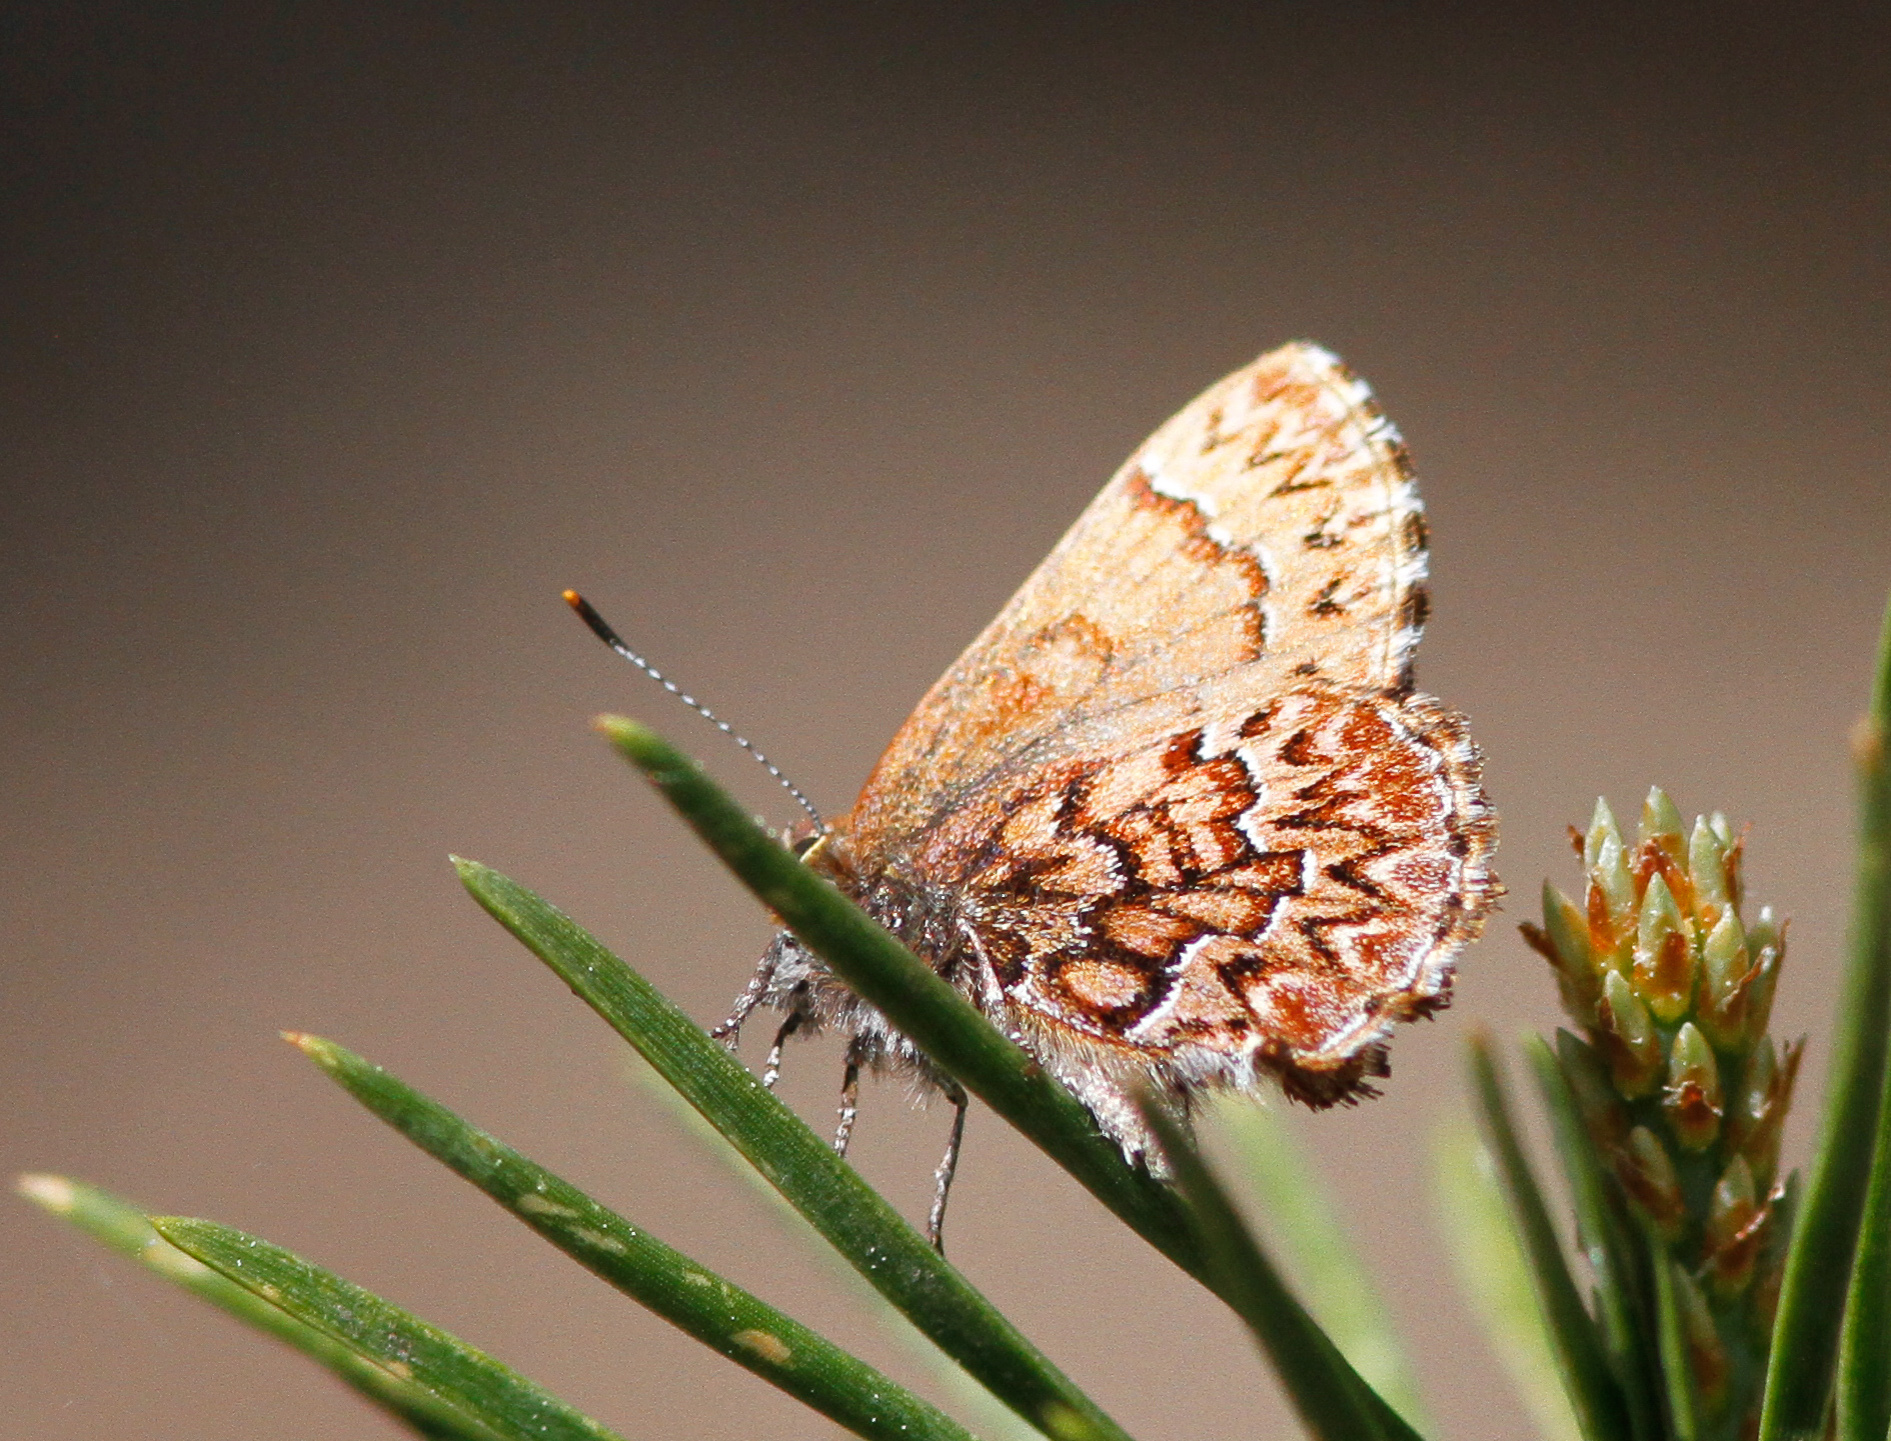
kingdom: Animalia
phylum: Arthropoda
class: Insecta
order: Lepidoptera
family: Lycaenidae
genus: Incisalia
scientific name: Incisalia eryphon
